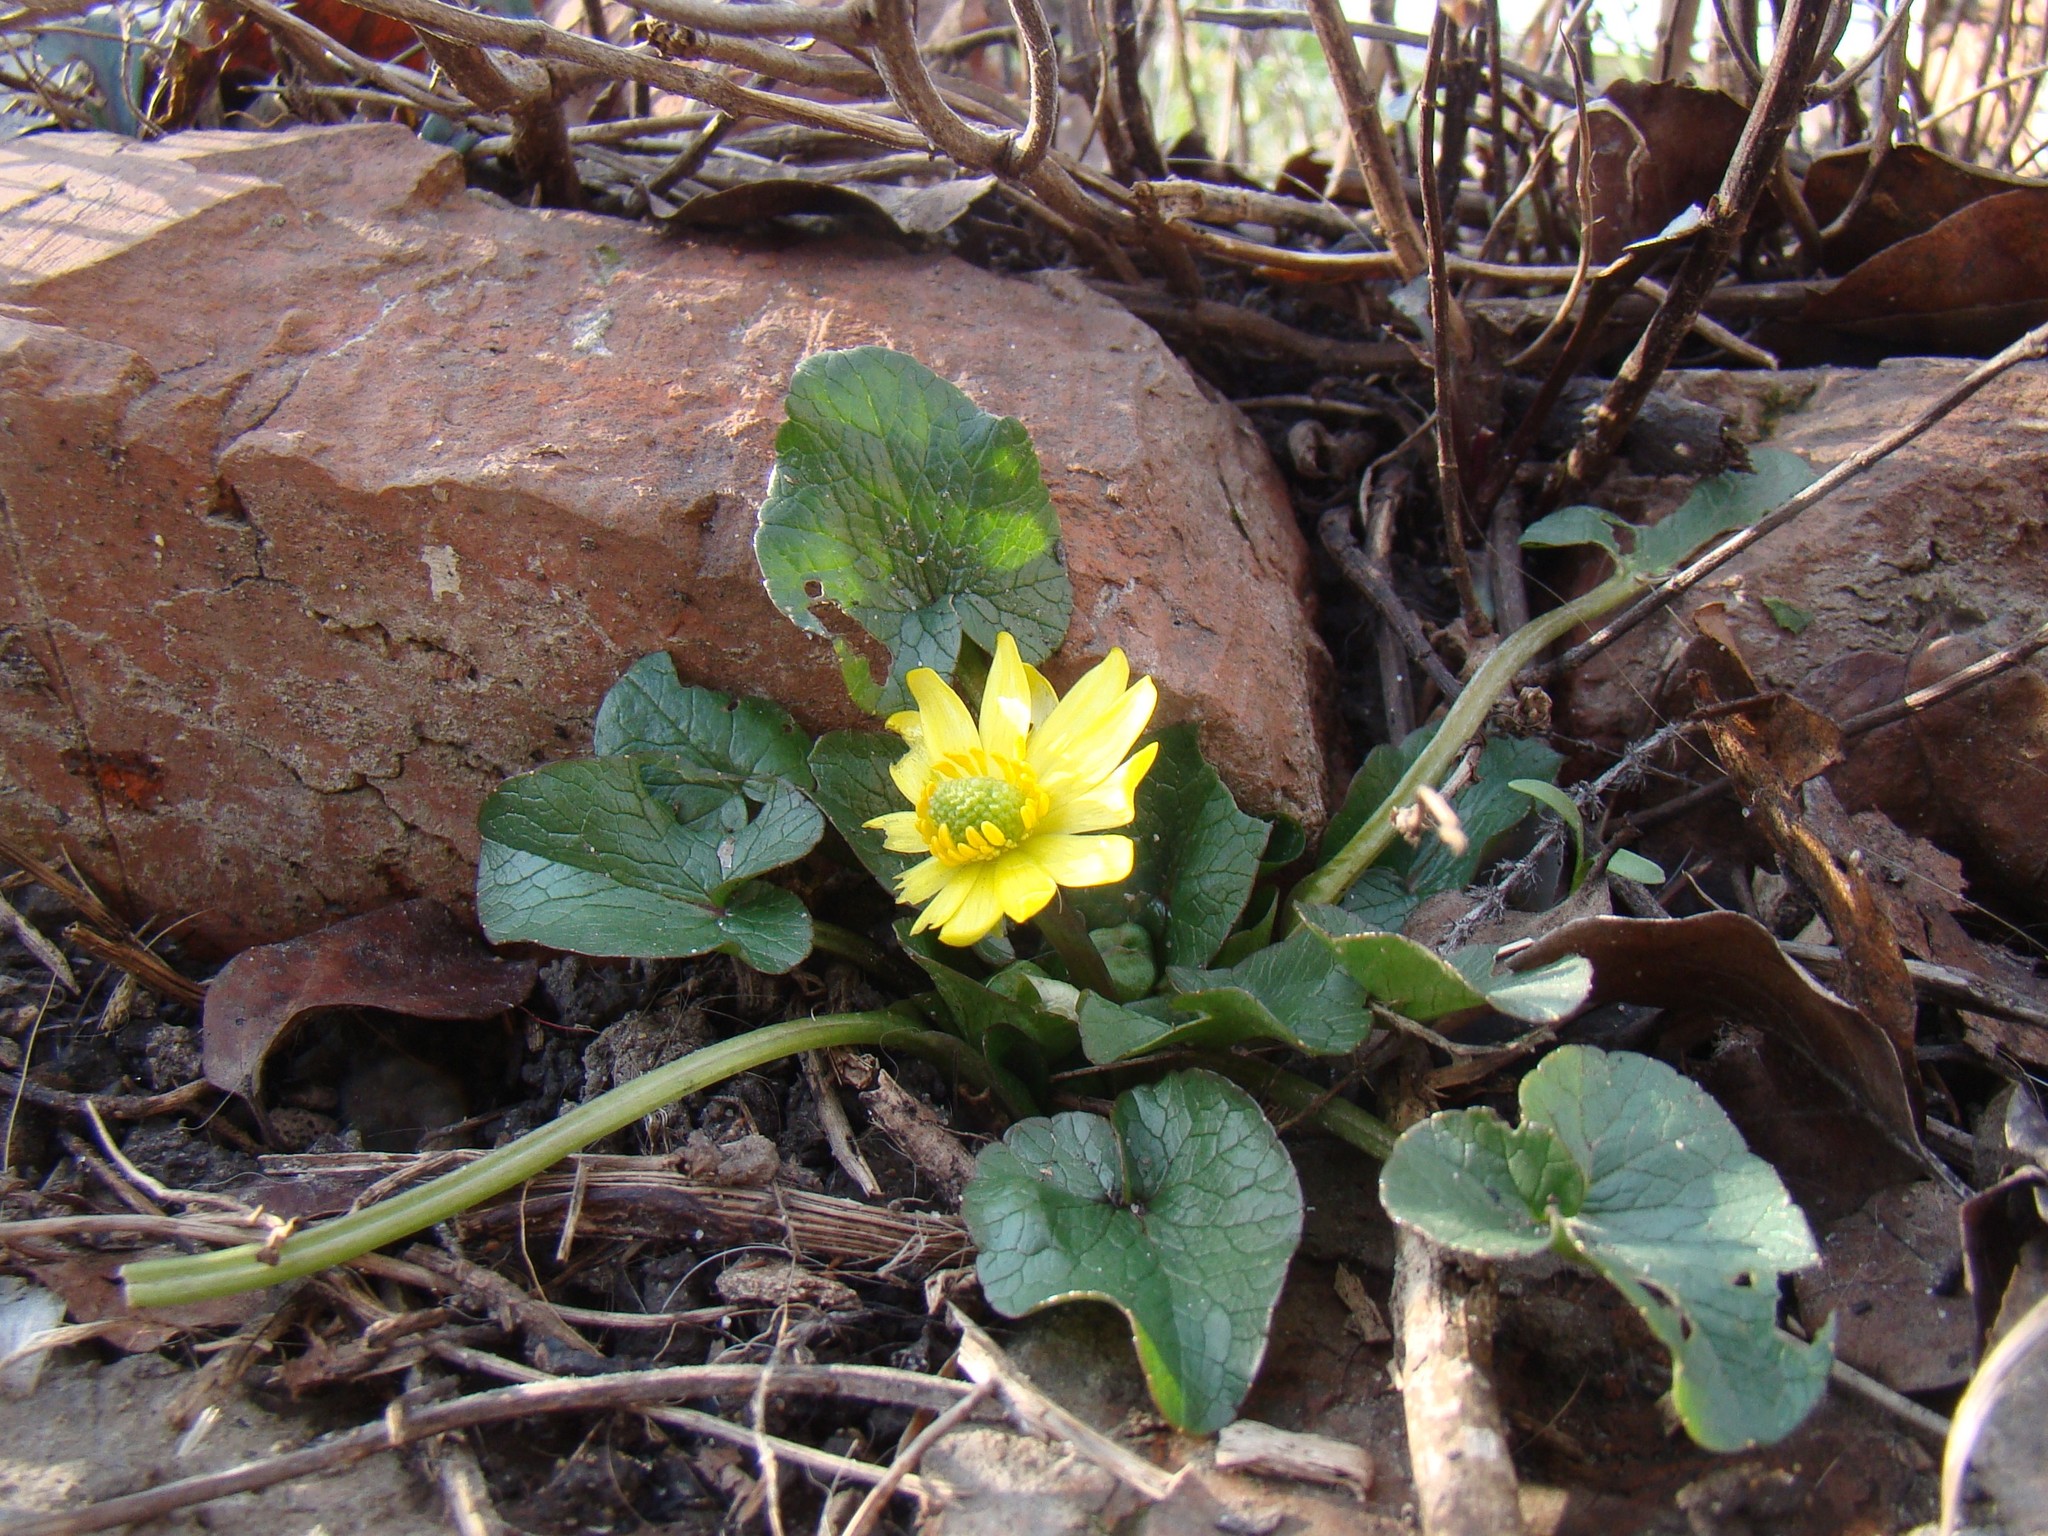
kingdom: Plantae
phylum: Tracheophyta
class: Magnoliopsida
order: Ranunculales
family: Ranunculaceae
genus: Ficaria
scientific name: Ficaria
